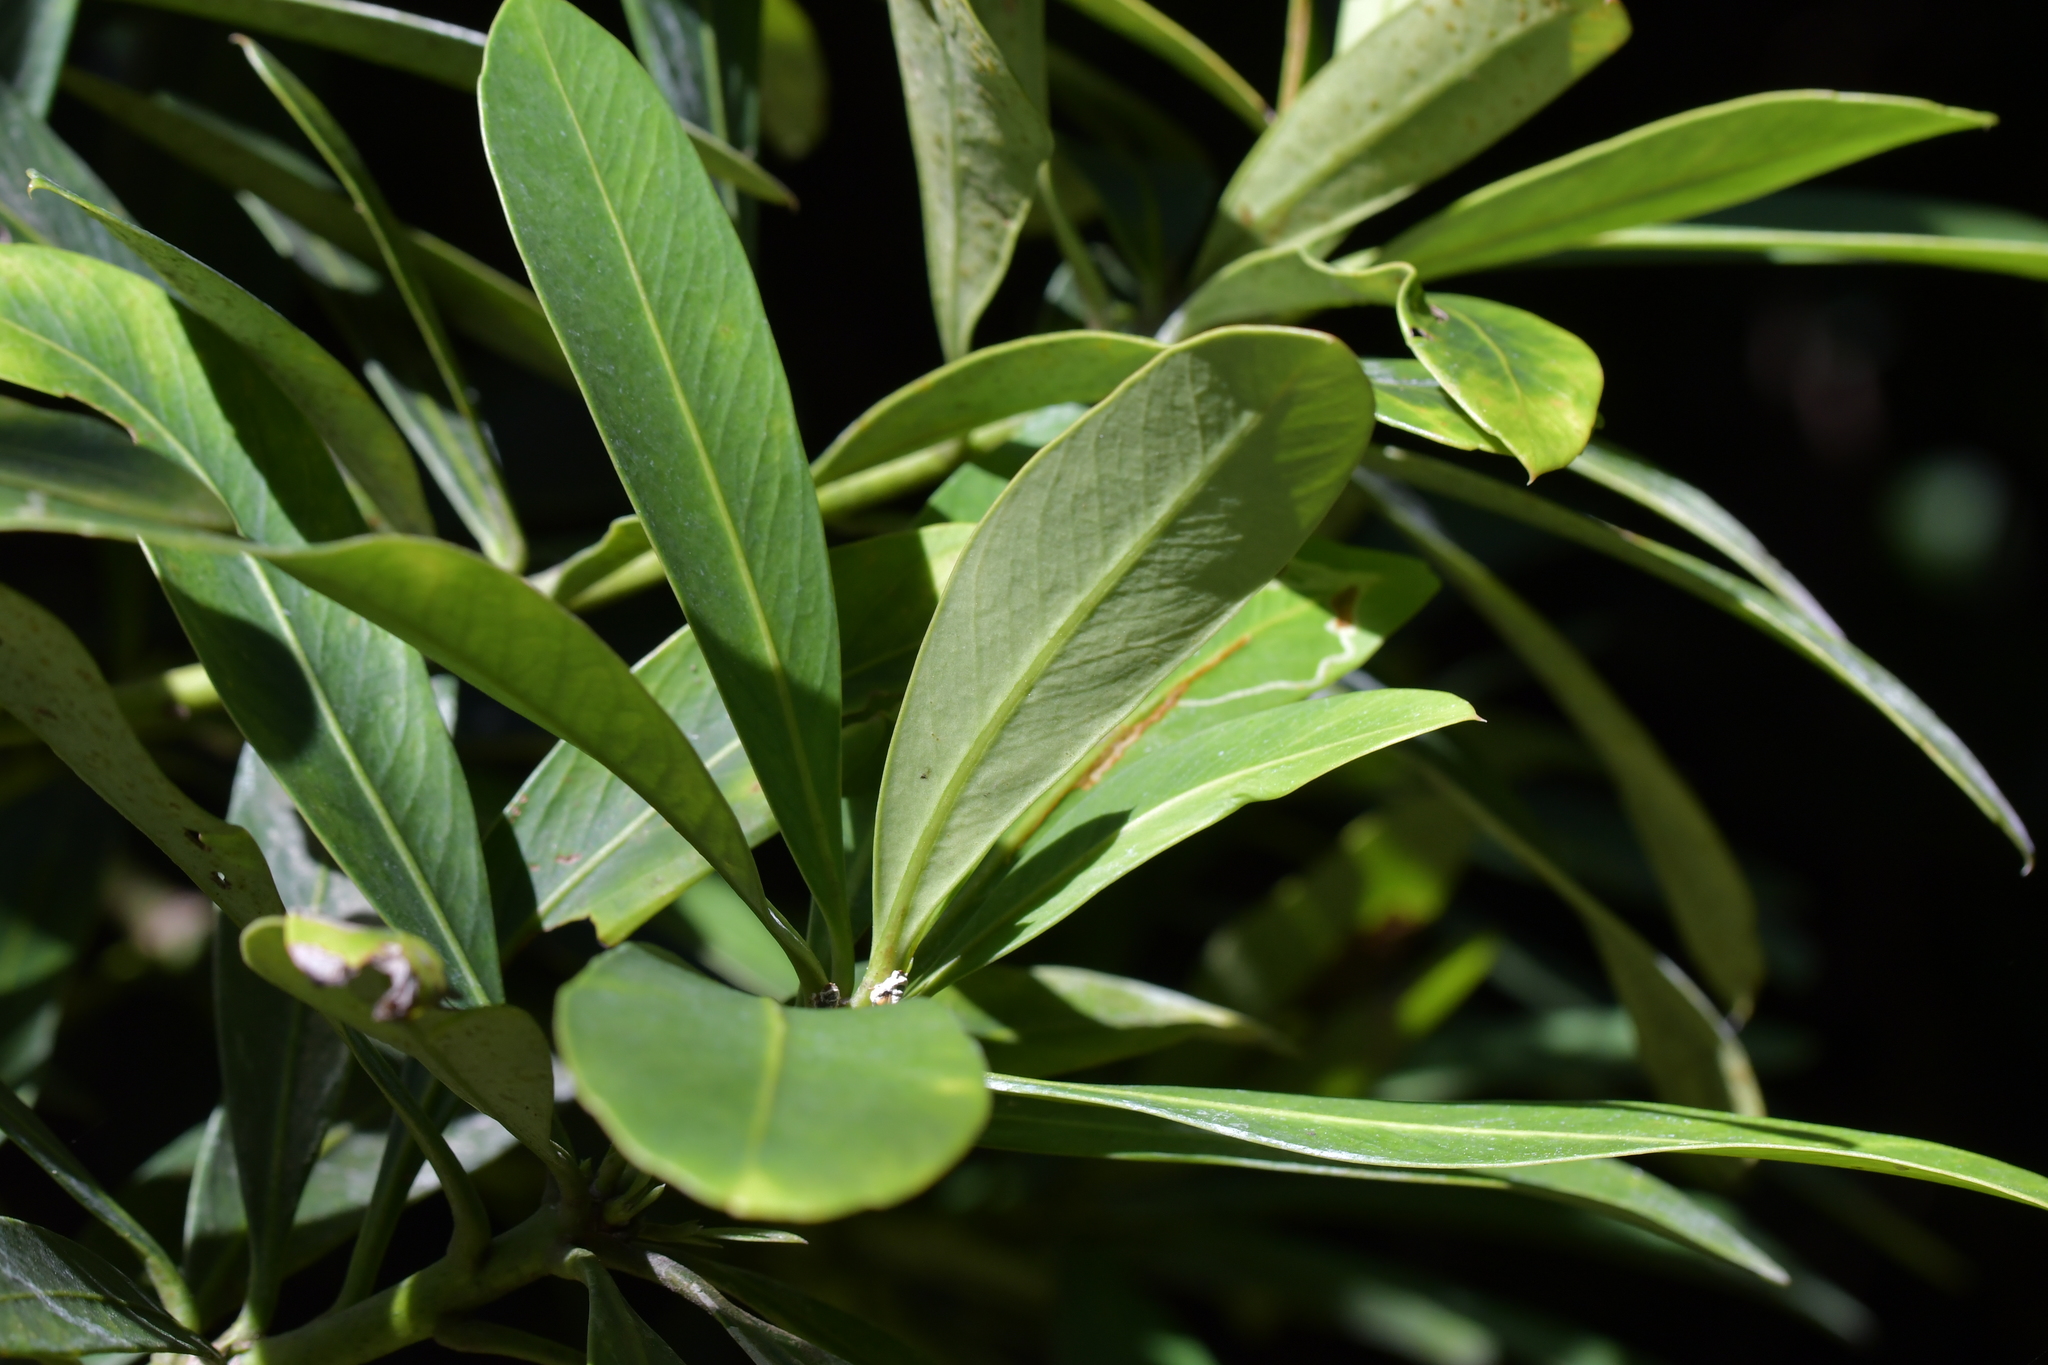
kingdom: Plantae
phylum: Tracheophyta
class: Magnoliopsida
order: Apiales
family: Araliaceae
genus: Pseudopanax
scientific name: Pseudopanax chathamicus
